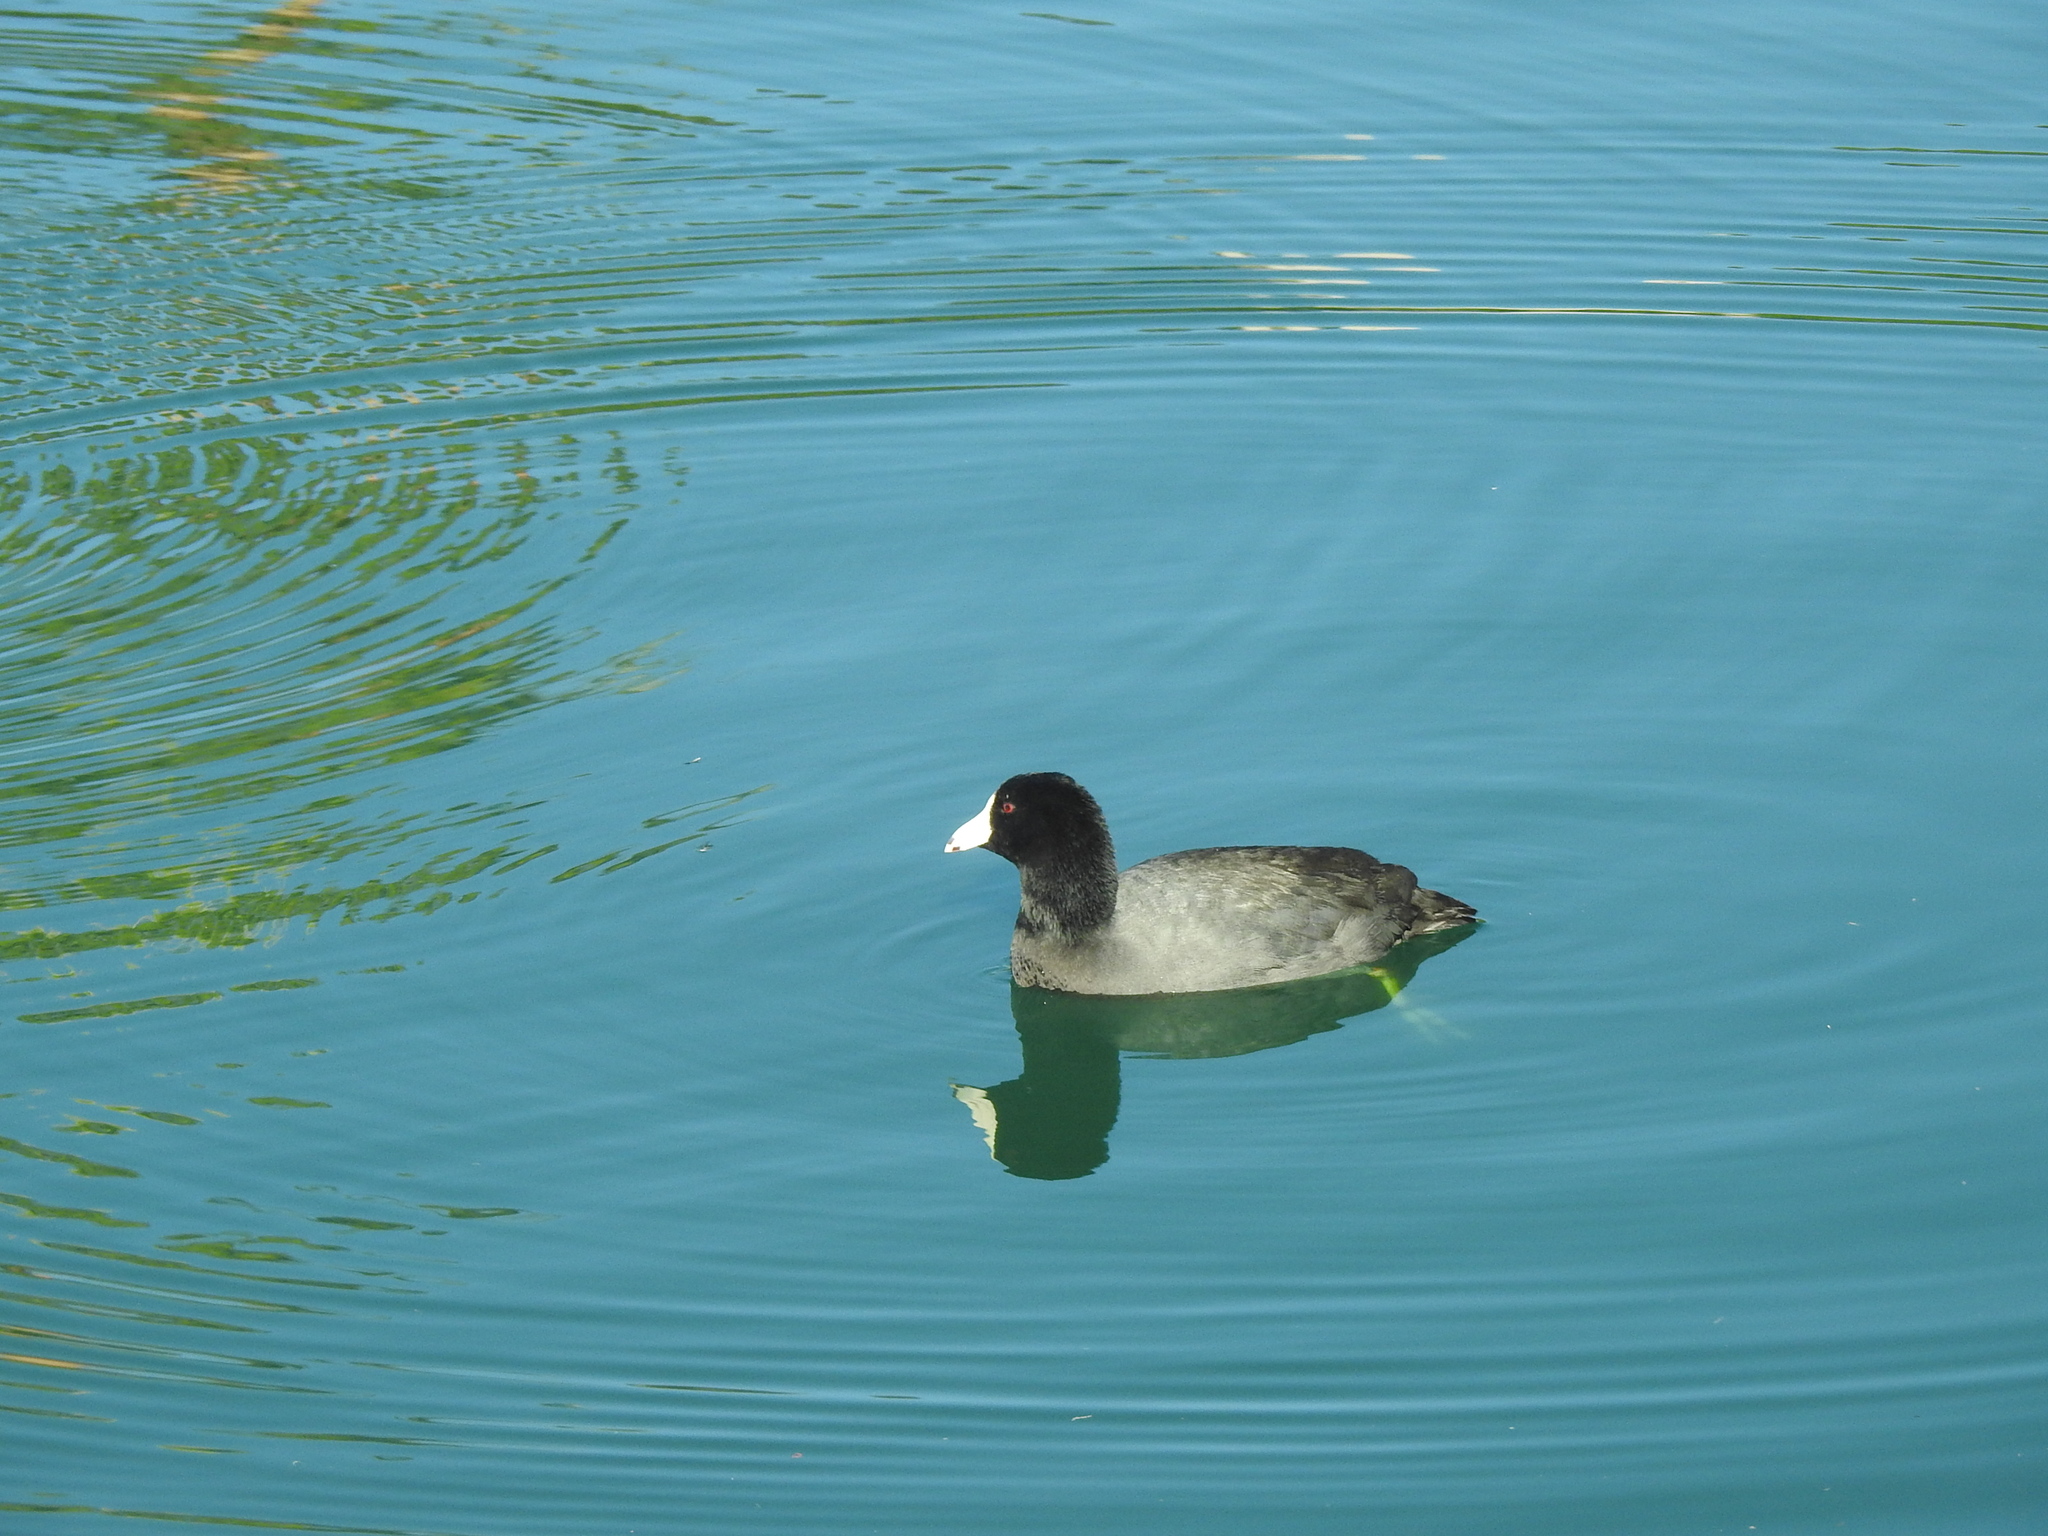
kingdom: Animalia
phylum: Chordata
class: Aves
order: Gruiformes
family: Rallidae
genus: Fulica
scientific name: Fulica americana
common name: American coot
